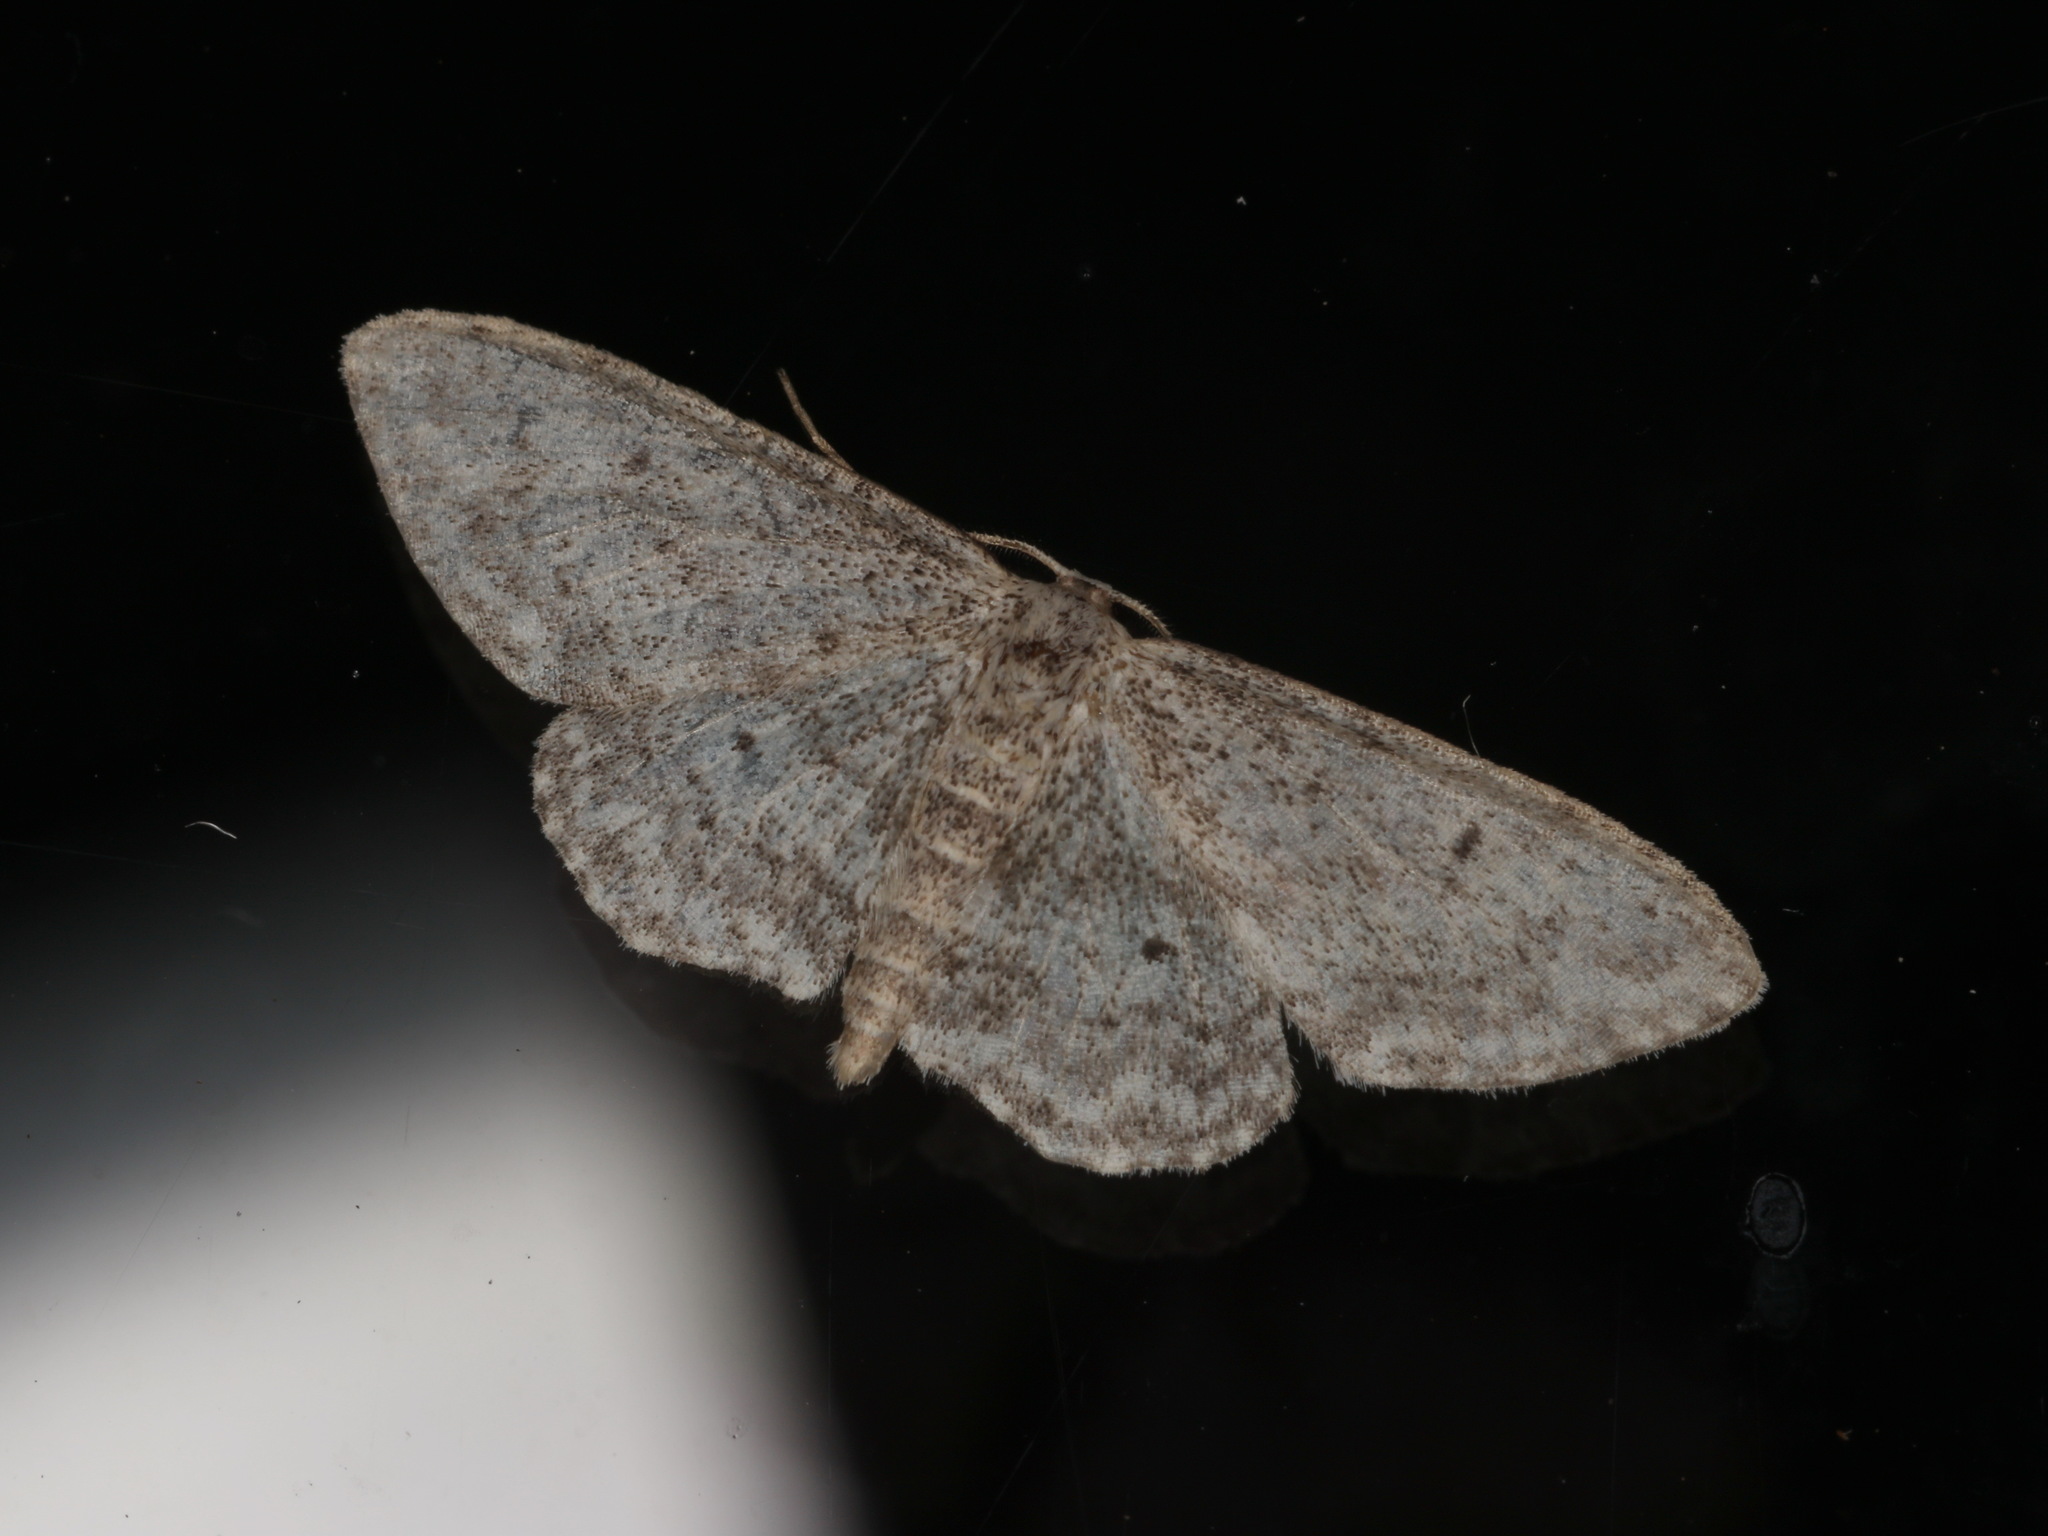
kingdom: Animalia
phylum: Arthropoda
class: Insecta
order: Lepidoptera
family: Geometridae
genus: Idaea
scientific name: Idaea seriata
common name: Small dusty wave
